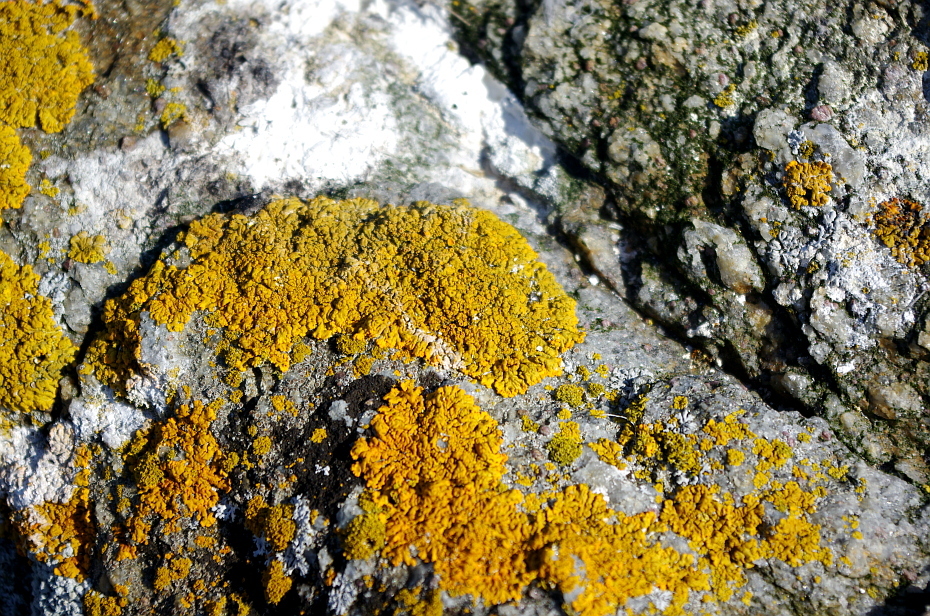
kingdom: Fungi
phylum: Ascomycota
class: Lecanoromycetes
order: Teloschistales
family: Teloschistaceae
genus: Xanthoria
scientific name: Xanthoria parietina
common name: Common orange lichen
